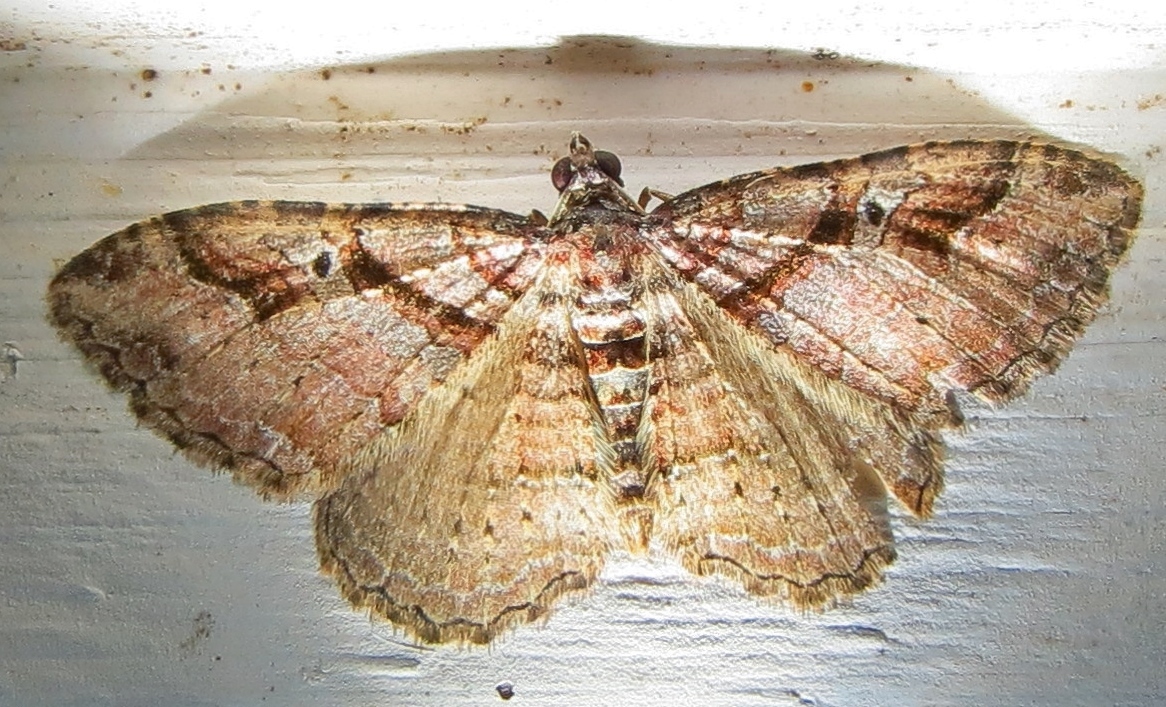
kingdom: Animalia
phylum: Arthropoda
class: Insecta
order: Lepidoptera
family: Geometridae
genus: Costaconvexa
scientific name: Costaconvexa centrostrigaria
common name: Bent-line carpet
